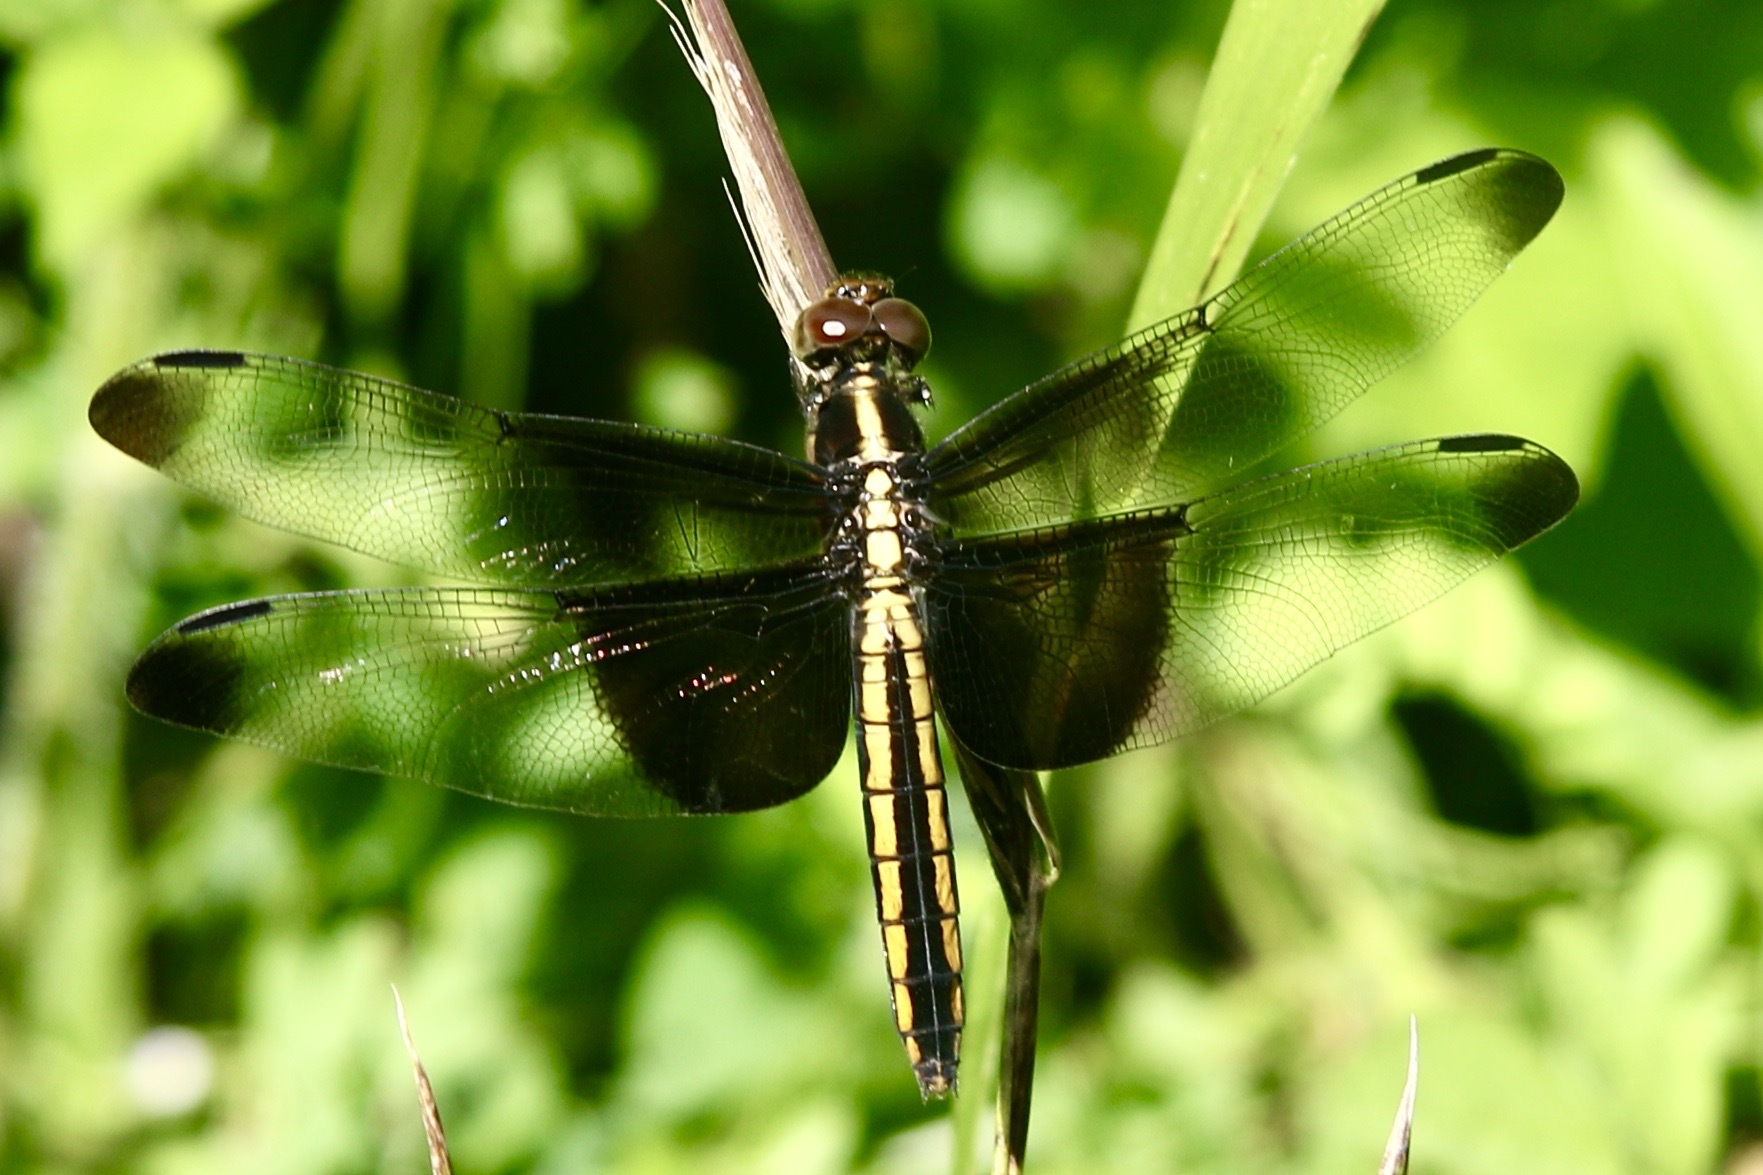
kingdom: Animalia
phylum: Arthropoda
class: Insecta
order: Odonata
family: Libellulidae
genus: Libellula
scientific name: Libellula luctuosa
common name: Widow skimmer
